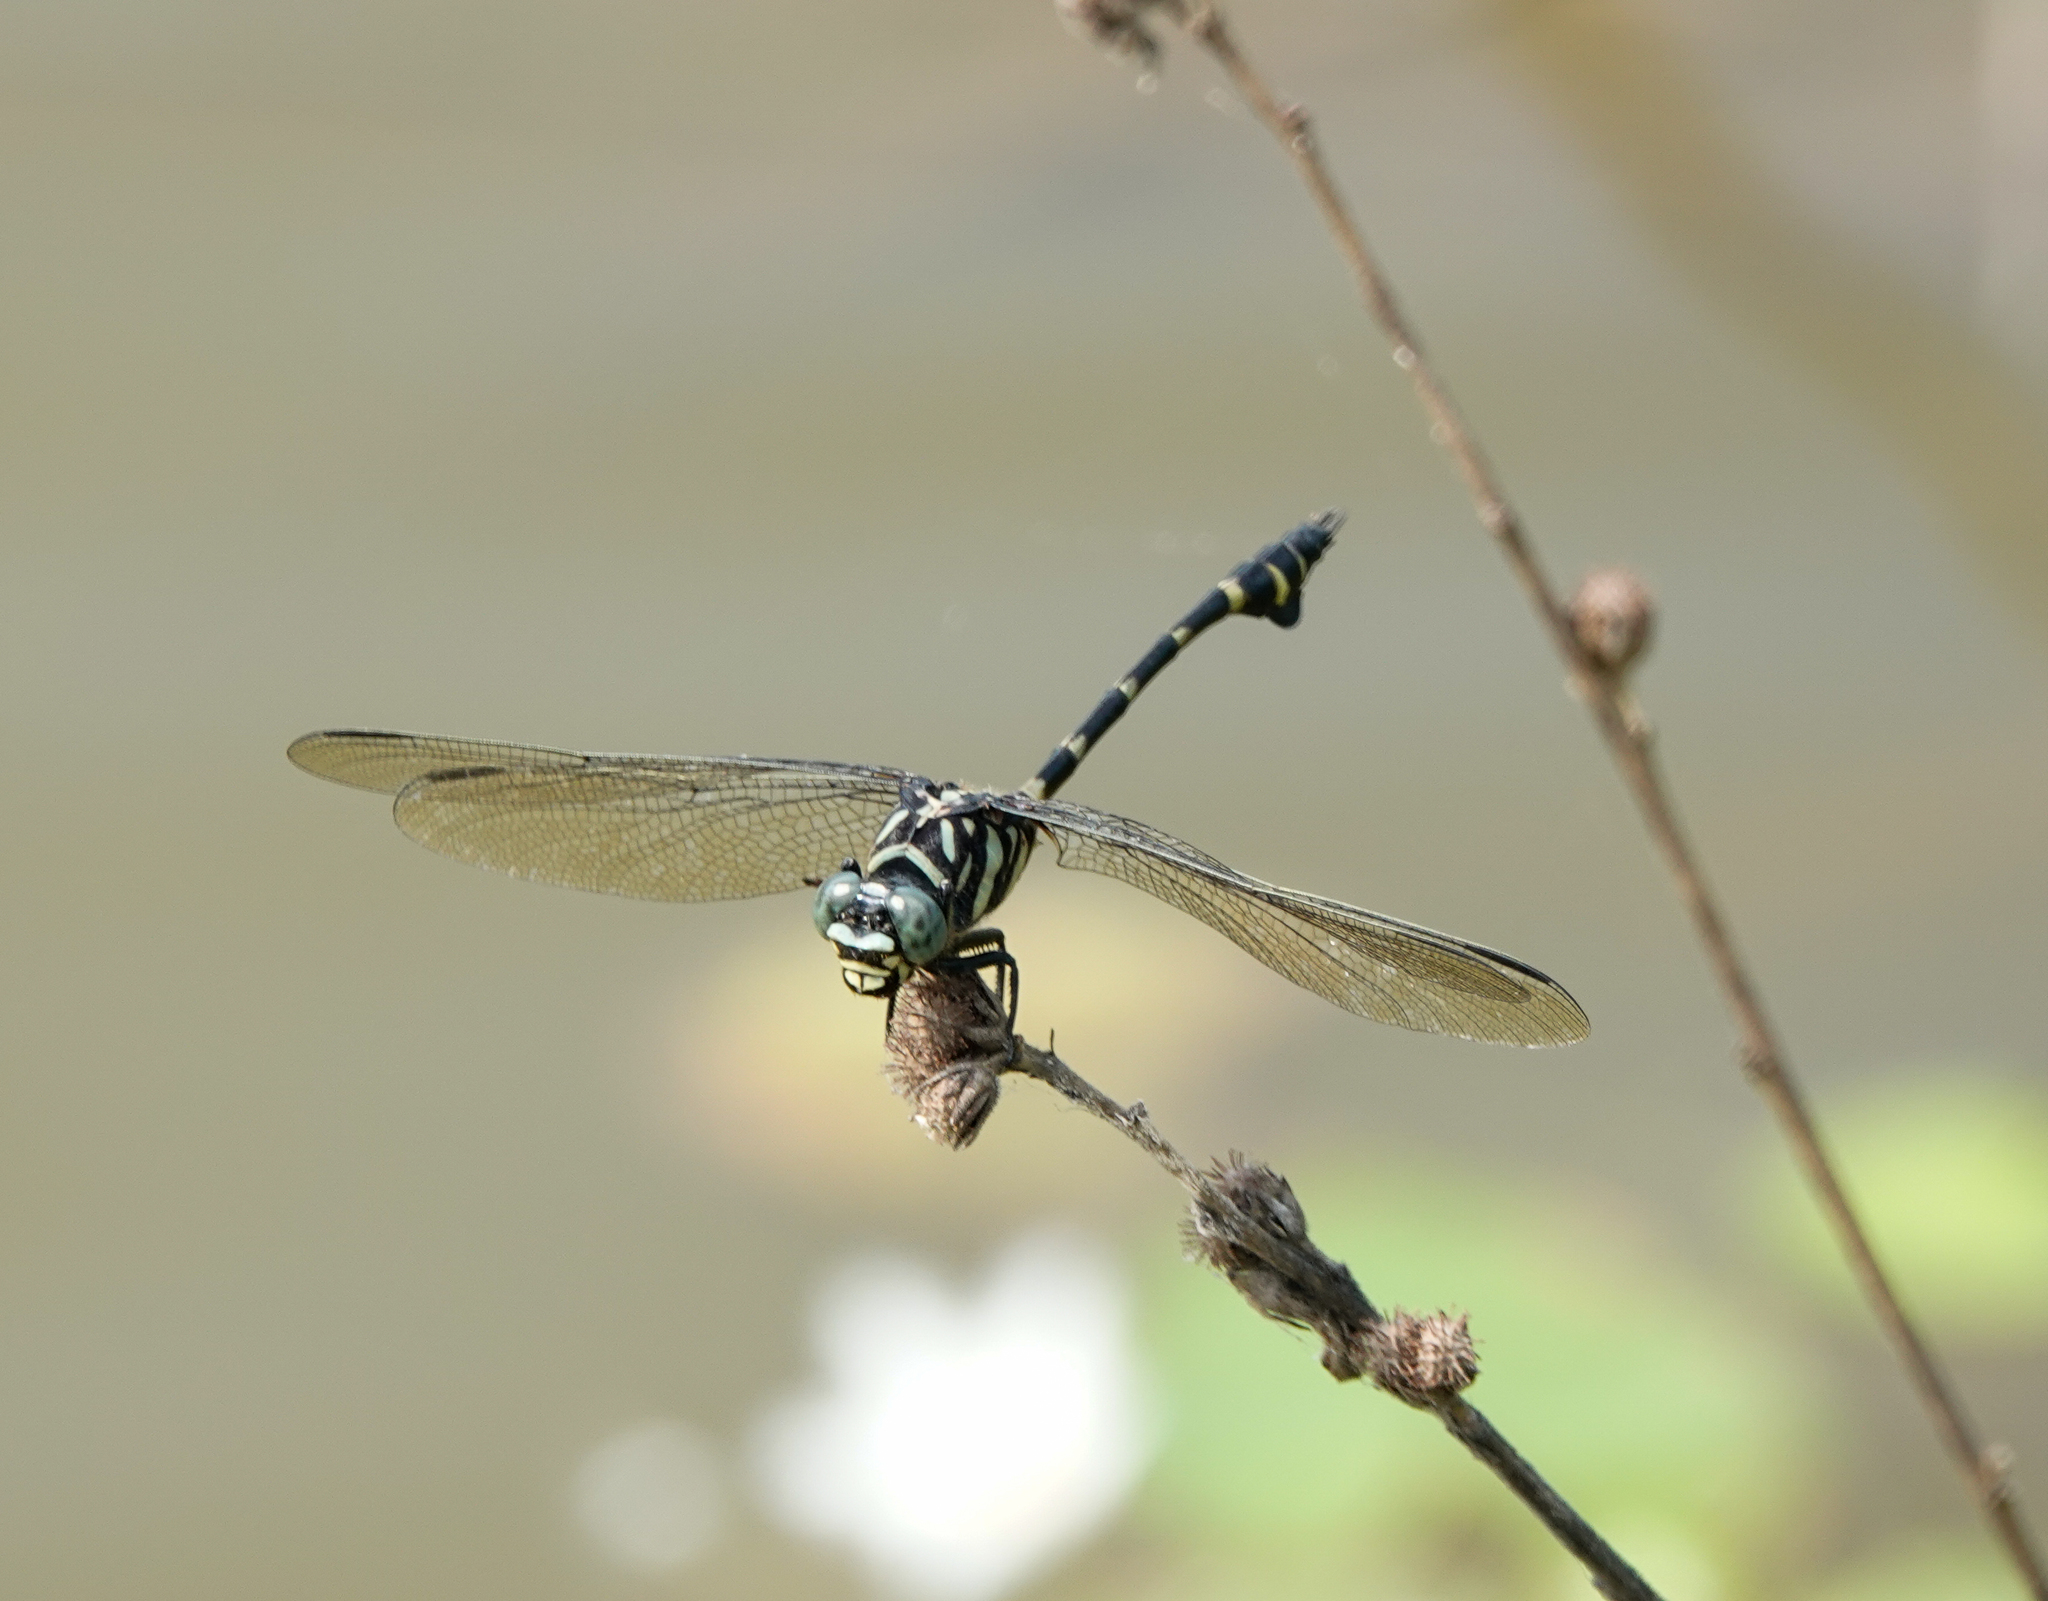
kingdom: Animalia
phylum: Arthropoda
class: Insecta
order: Odonata
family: Gomphidae
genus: Ictinogomphus
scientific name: Ictinogomphus rapax
